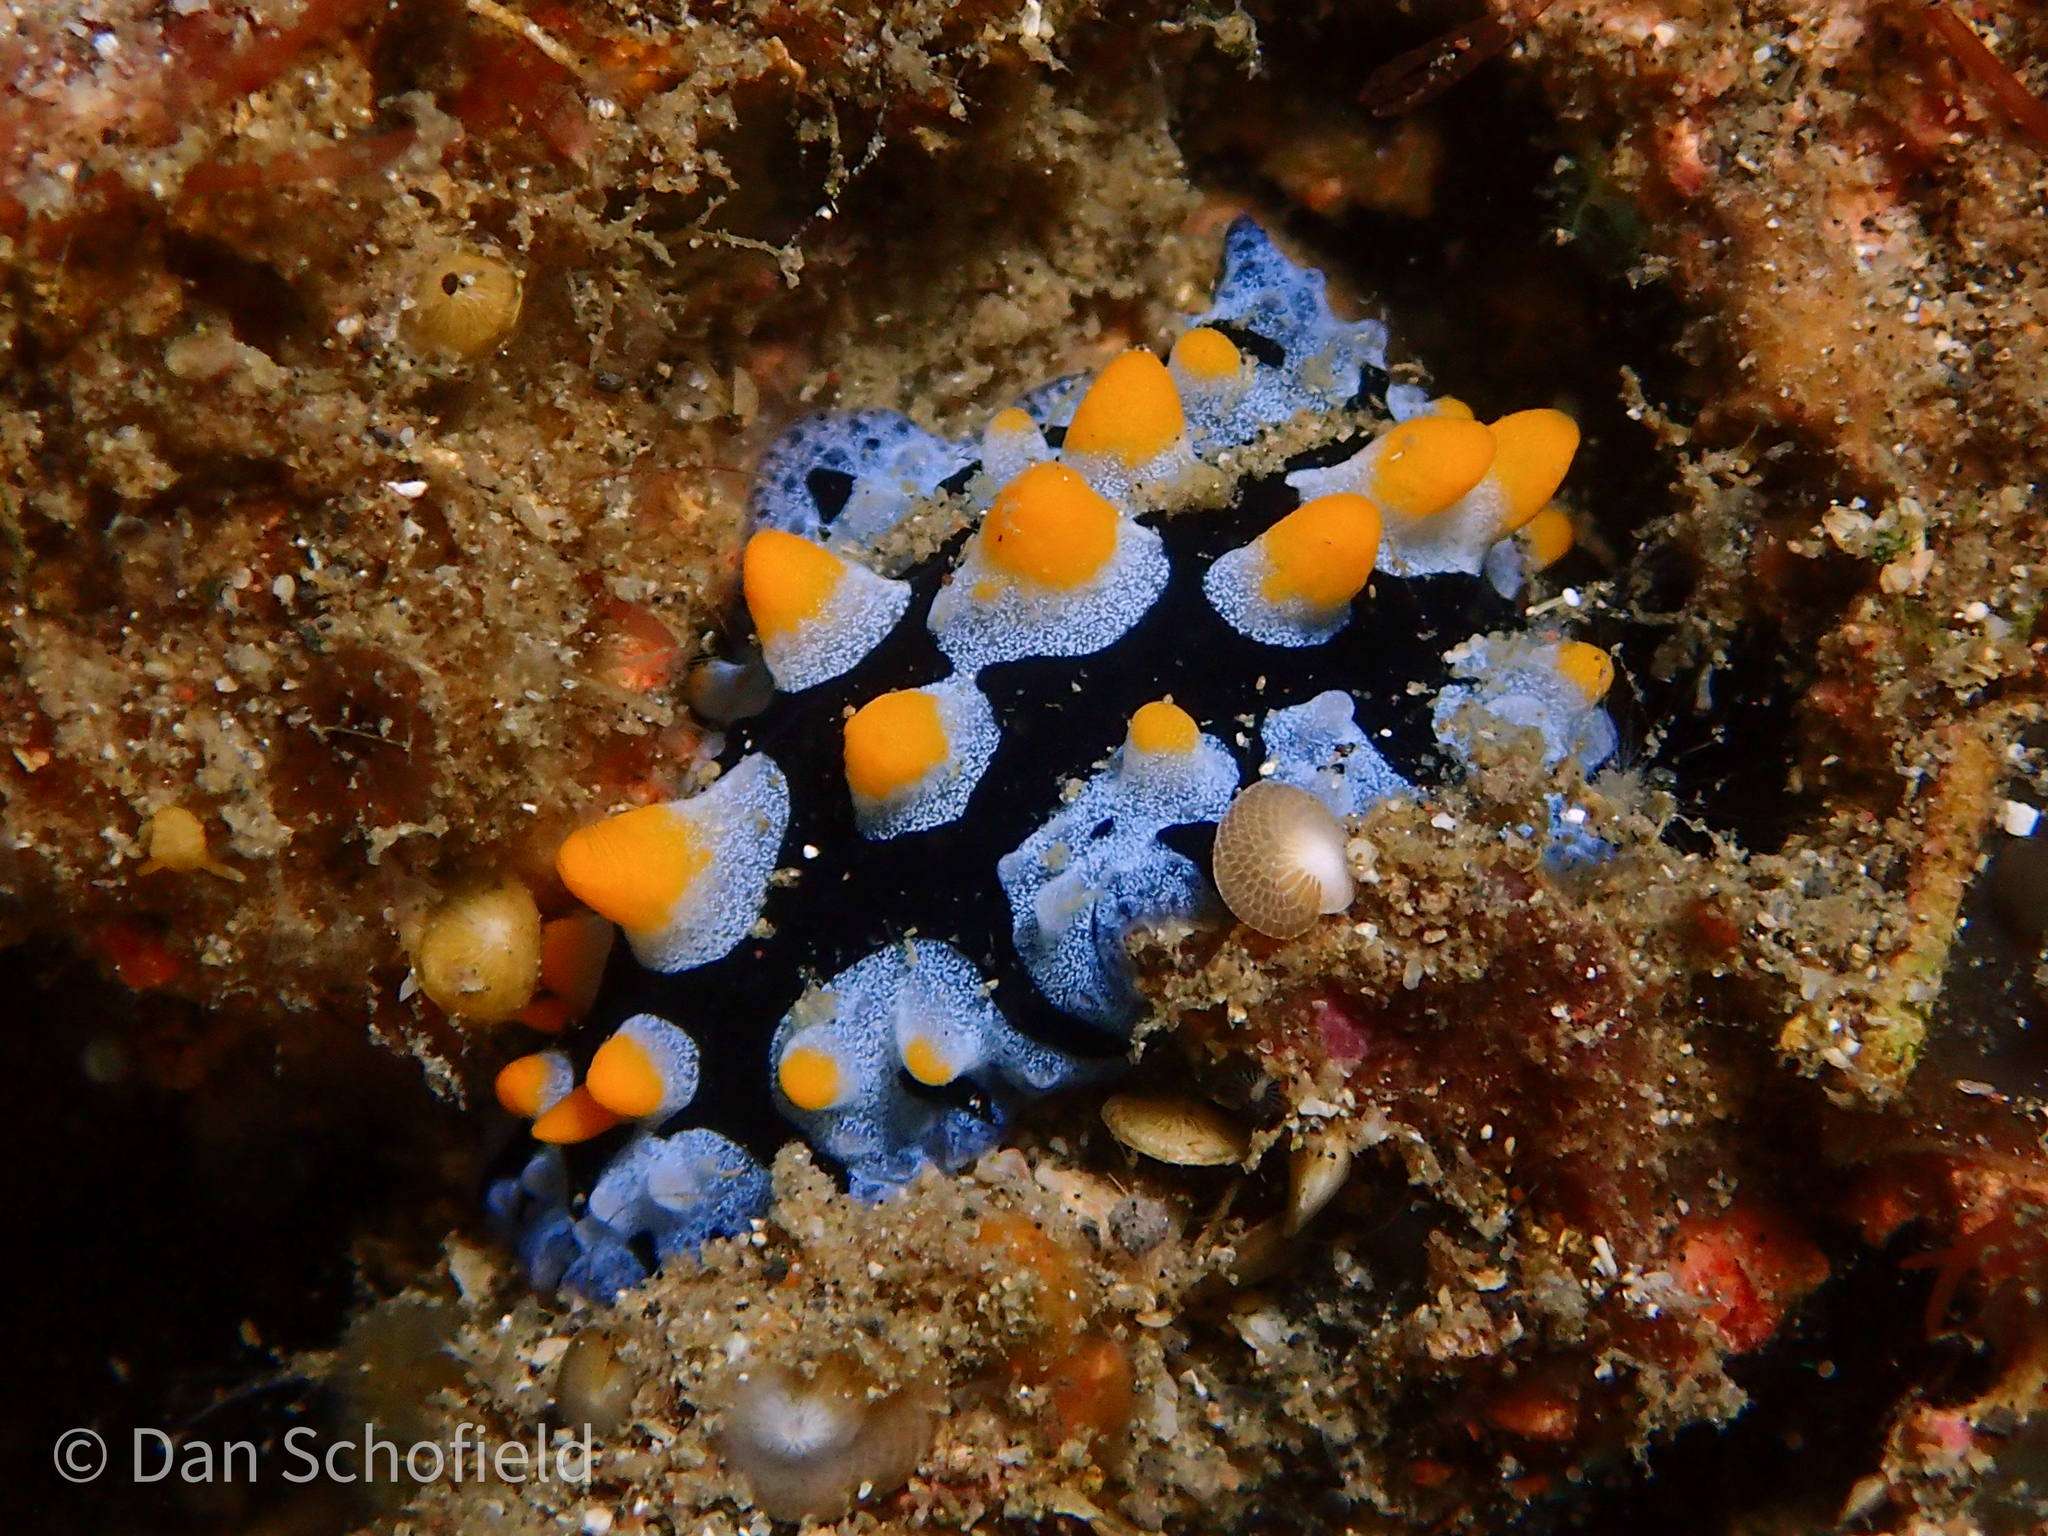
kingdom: Animalia
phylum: Mollusca
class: Gastropoda
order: Nudibranchia
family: Phyllidiidae
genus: Phyllidia
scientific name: Phyllidia picta
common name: Black-rayed phyllidia
